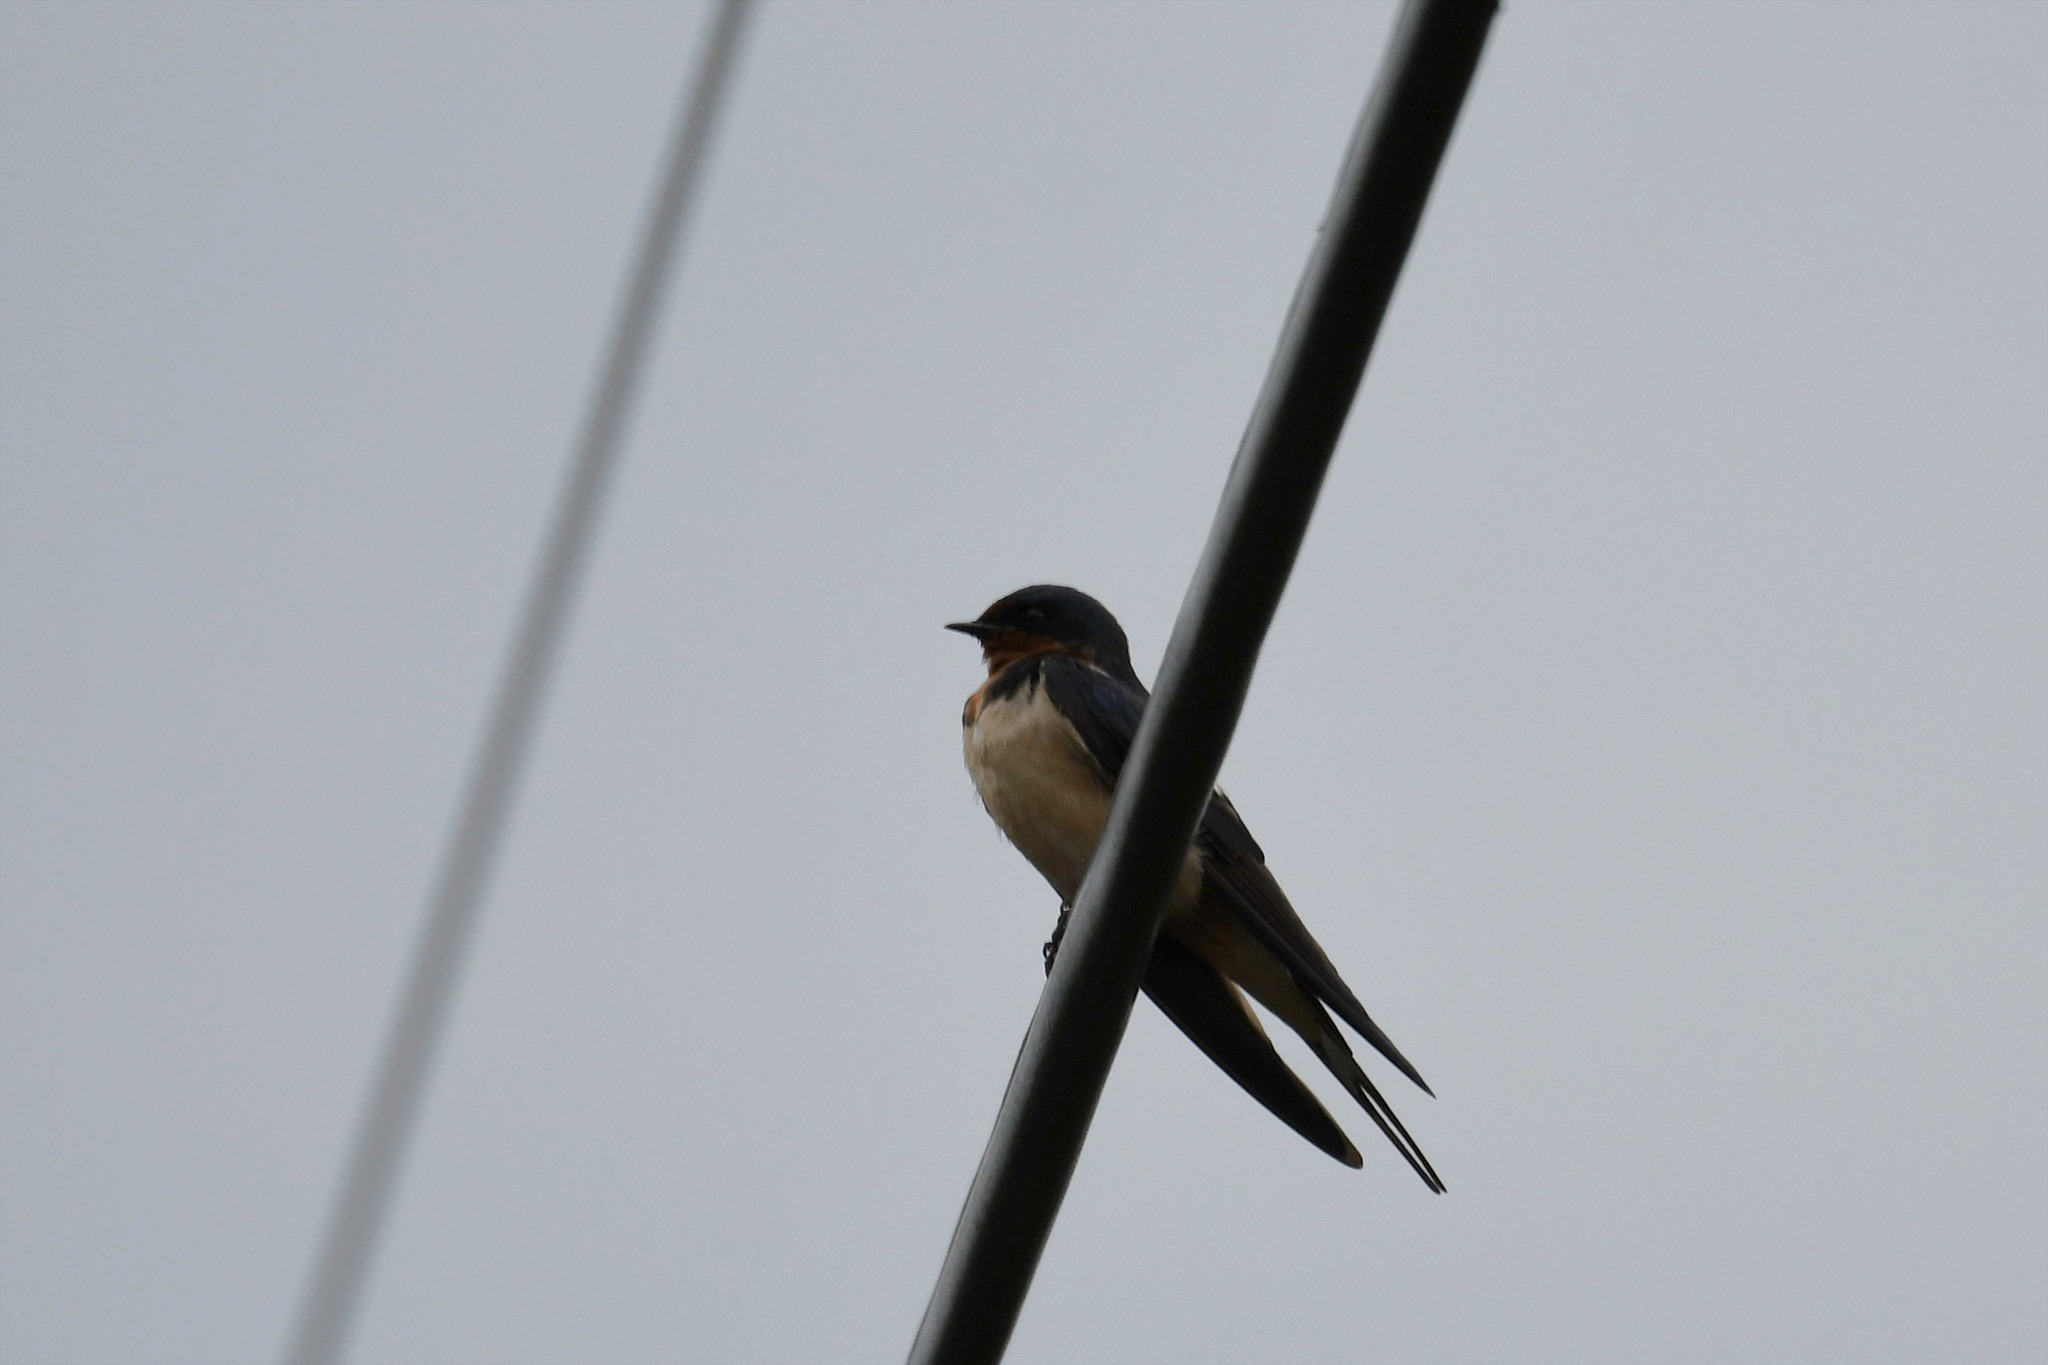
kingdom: Animalia
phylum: Chordata
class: Aves
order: Passeriformes
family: Hirundinidae
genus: Hirundo
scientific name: Hirundo rustica
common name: Barn swallow
